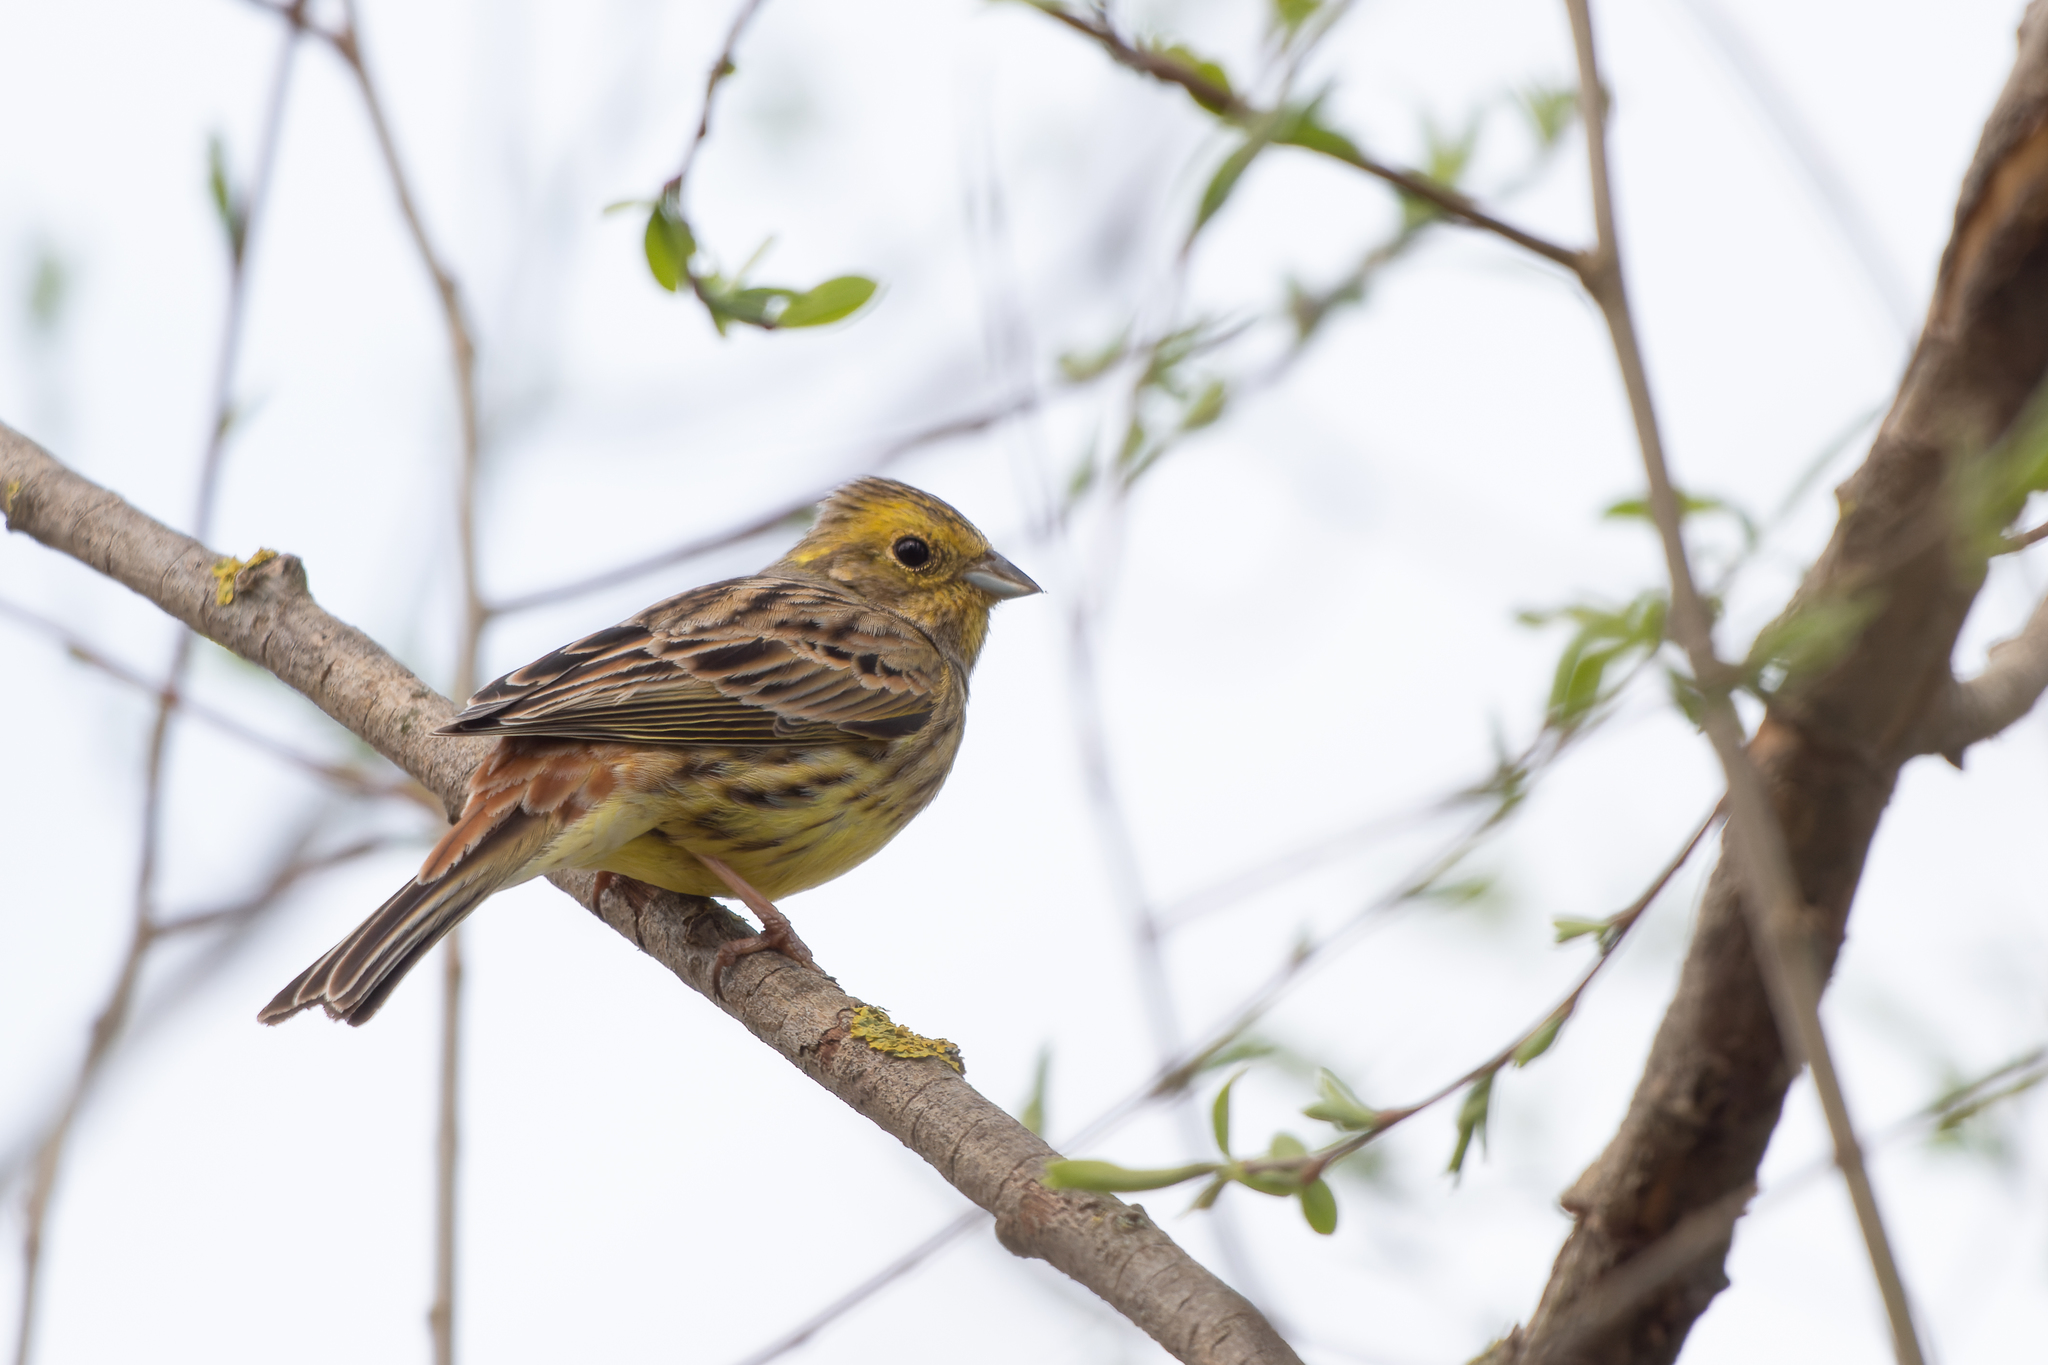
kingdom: Animalia
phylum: Chordata
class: Aves
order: Passeriformes
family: Emberizidae
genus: Emberiza
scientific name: Emberiza citrinella
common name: Yellowhammer
